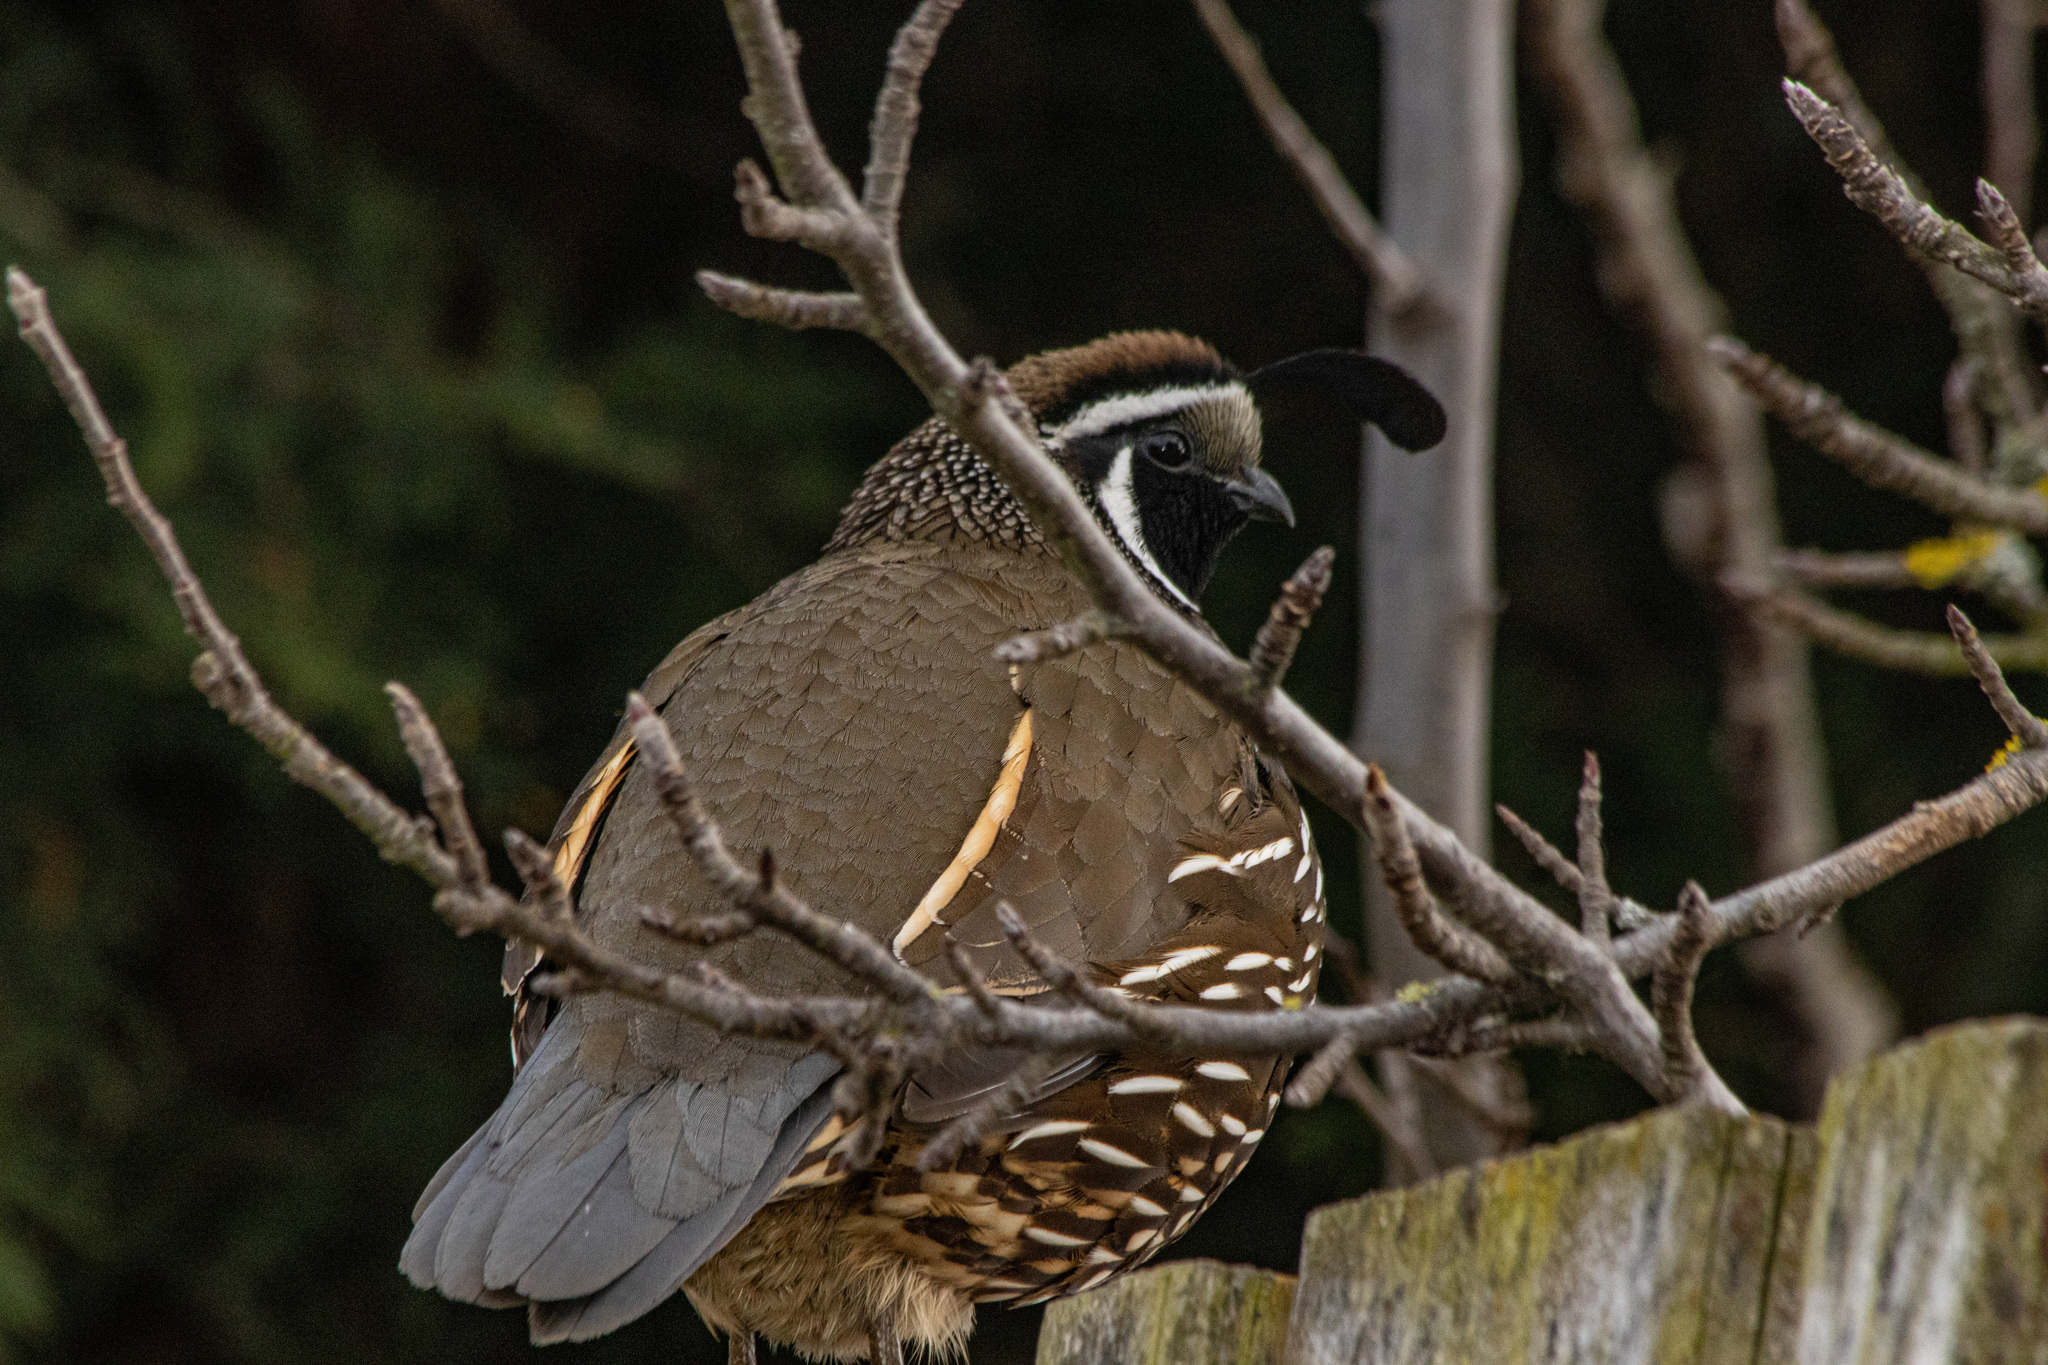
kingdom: Animalia
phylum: Chordata
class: Aves
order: Galliformes
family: Odontophoridae
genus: Callipepla
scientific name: Callipepla californica
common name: California quail
